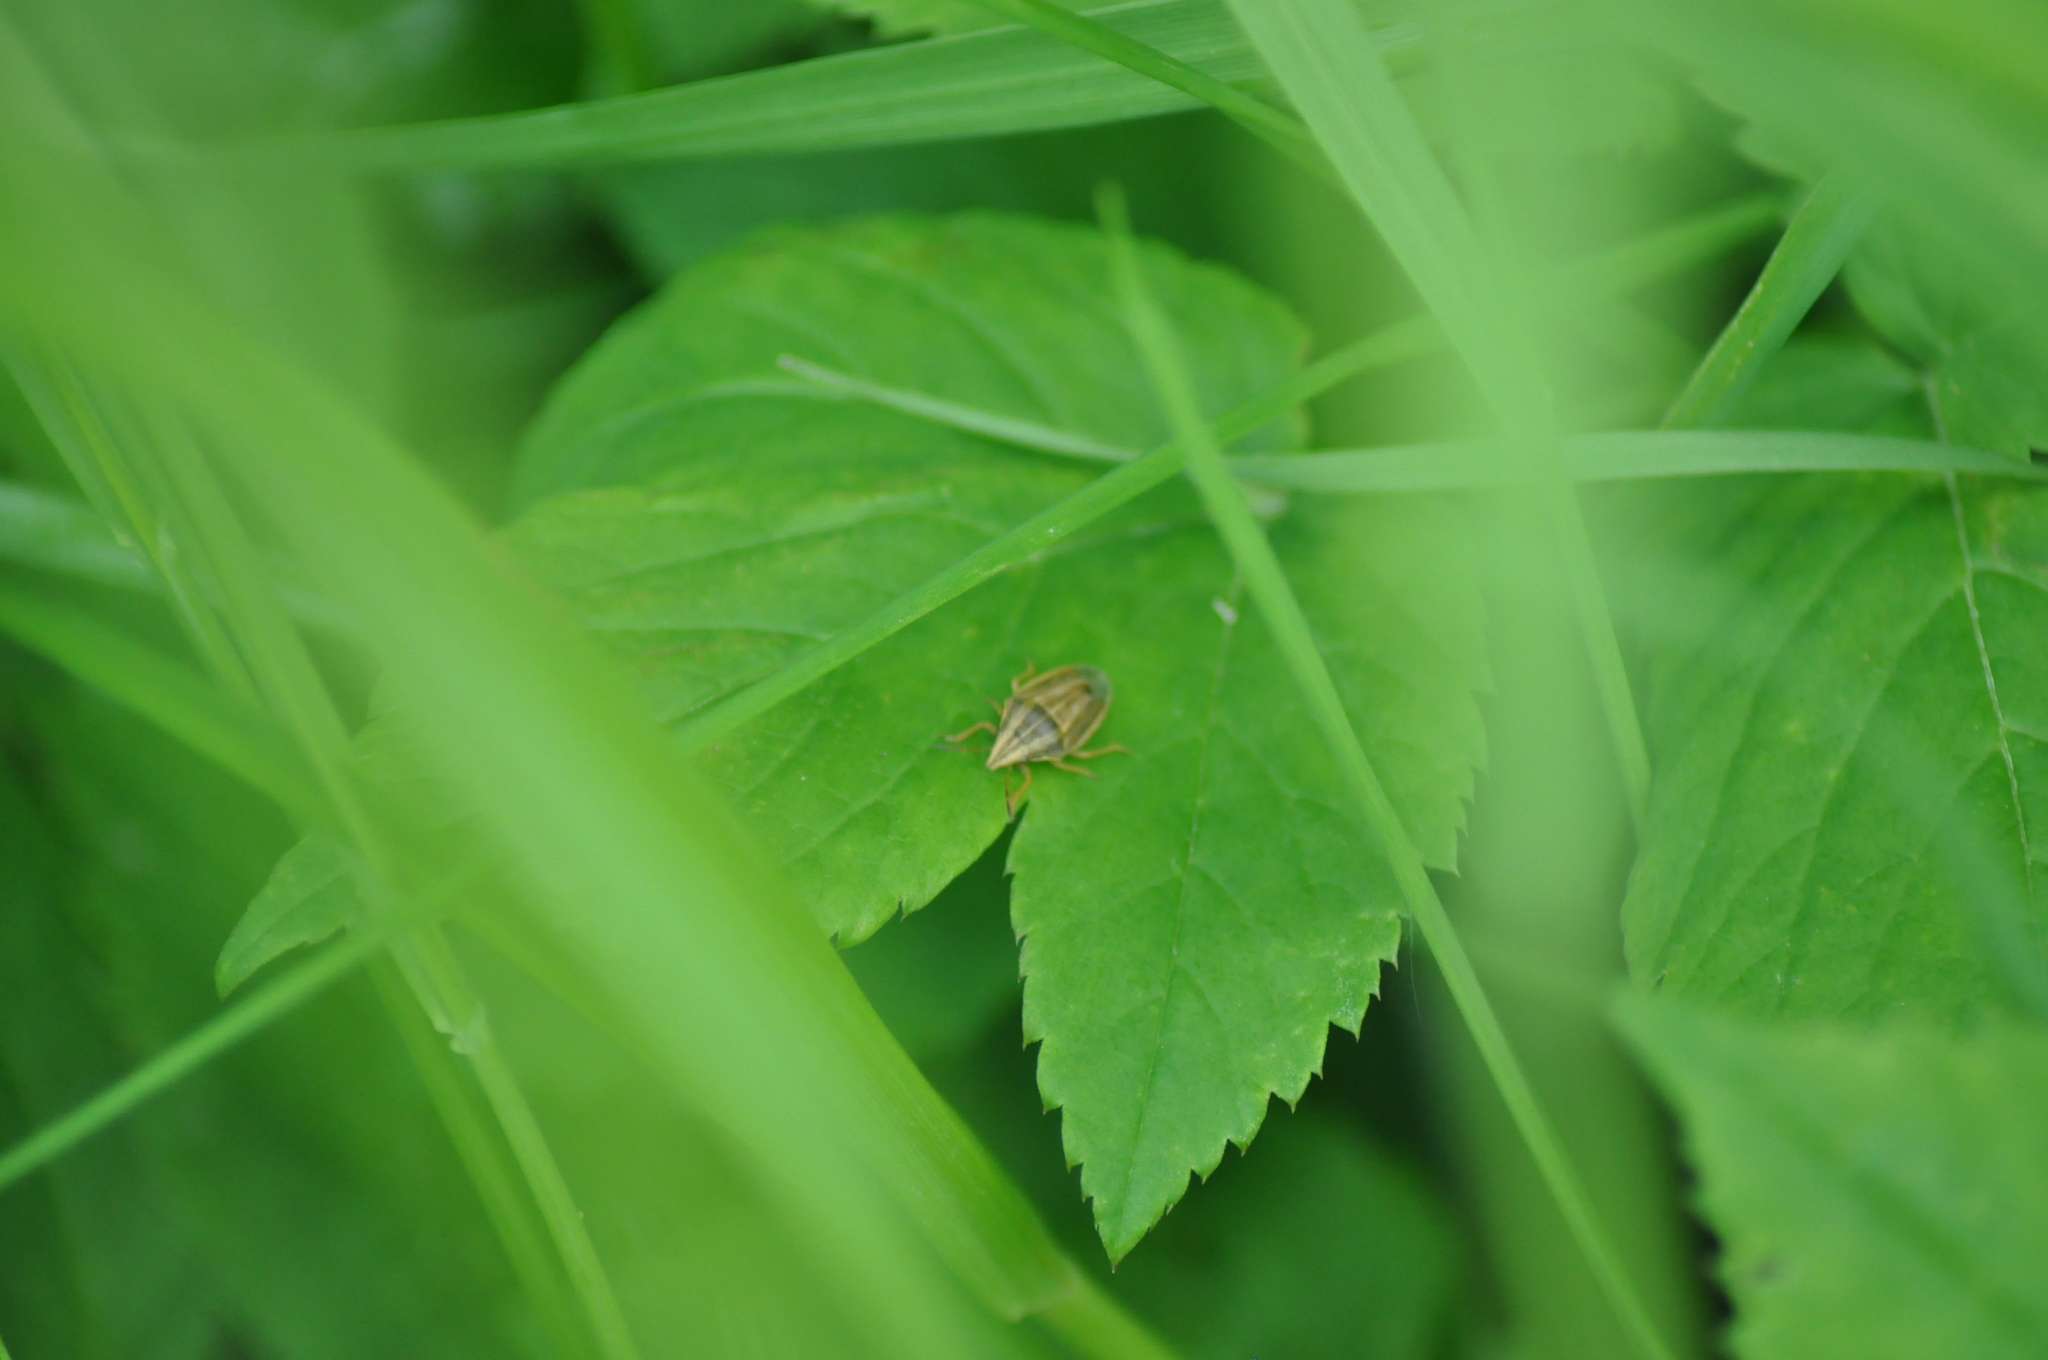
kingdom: Animalia
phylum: Arthropoda
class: Insecta
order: Hemiptera
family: Pentatomidae
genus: Aelia
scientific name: Aelia acuminata
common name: Bishop's mitre
